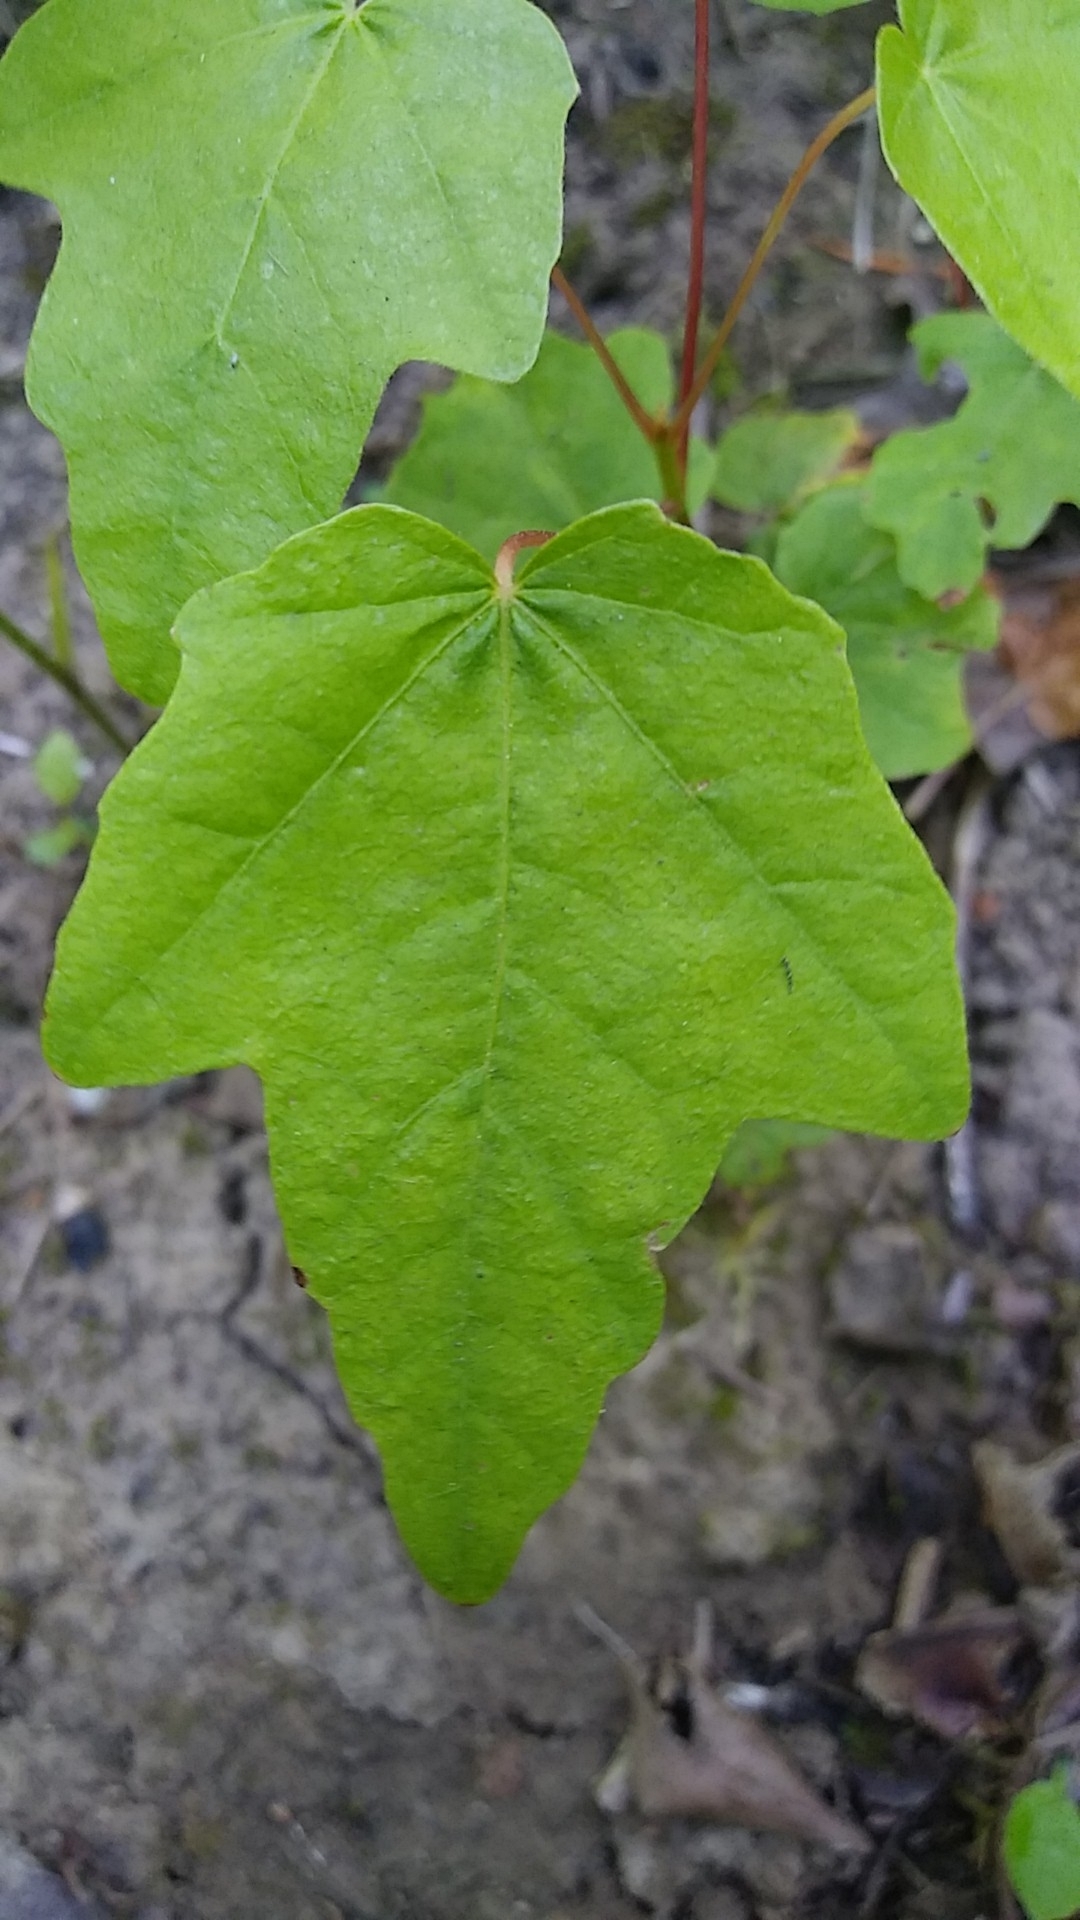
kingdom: Plantae
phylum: Tracheophyta
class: Magnoliopsida
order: Sapindales
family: Sapindaceae
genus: Acer
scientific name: Acer macrophyllum
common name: Oregon maple
